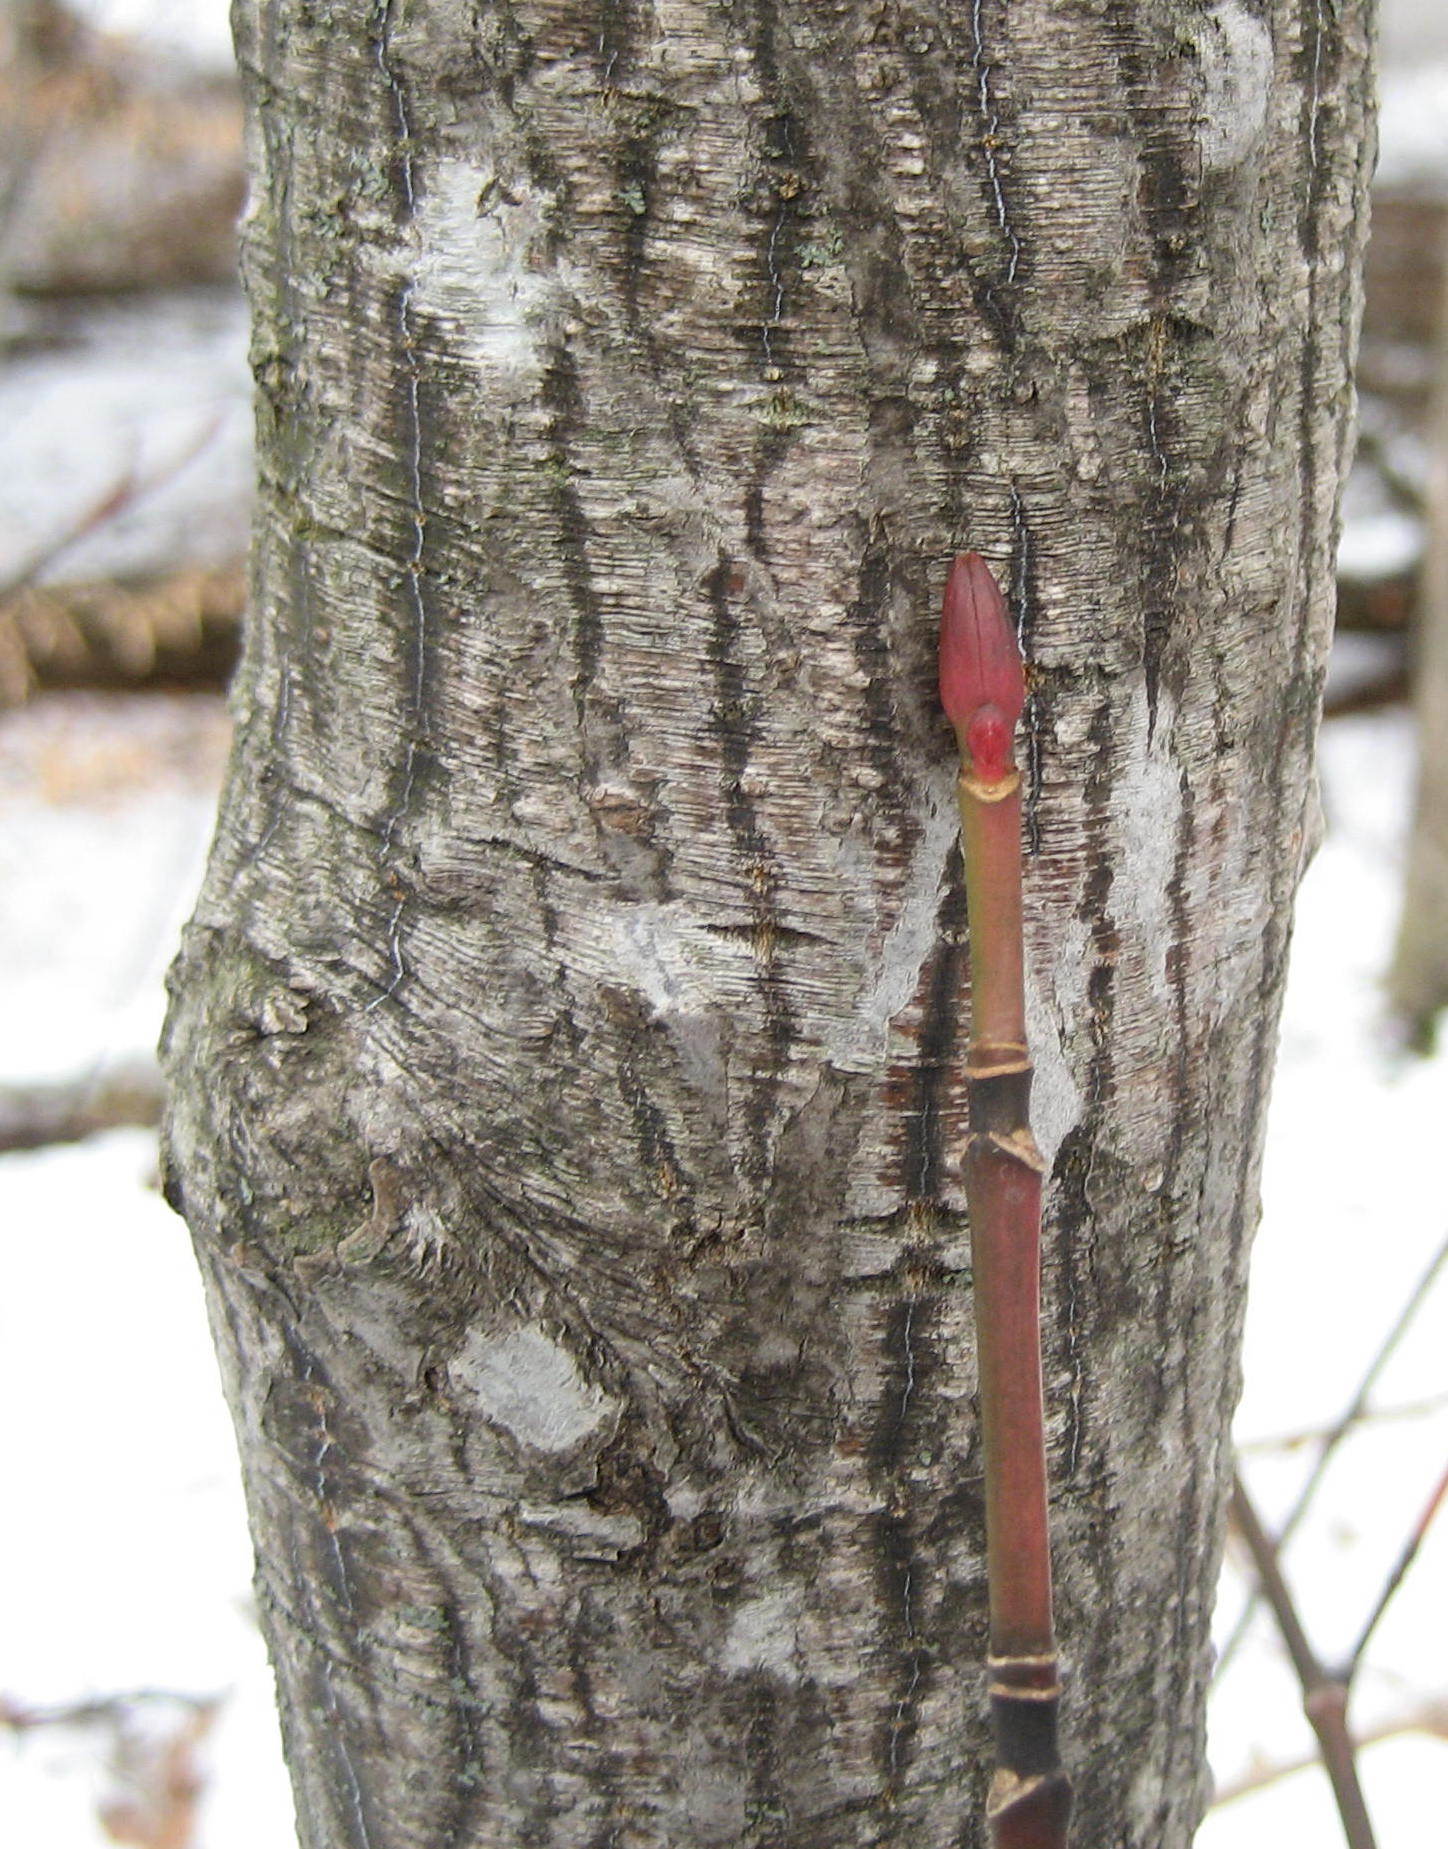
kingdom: Plantae
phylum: Tracheophyta
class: Magnoliopsida
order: Sapindales
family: Sapindaceae
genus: Acer
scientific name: Acer pensylvanicum
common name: Moosewood
